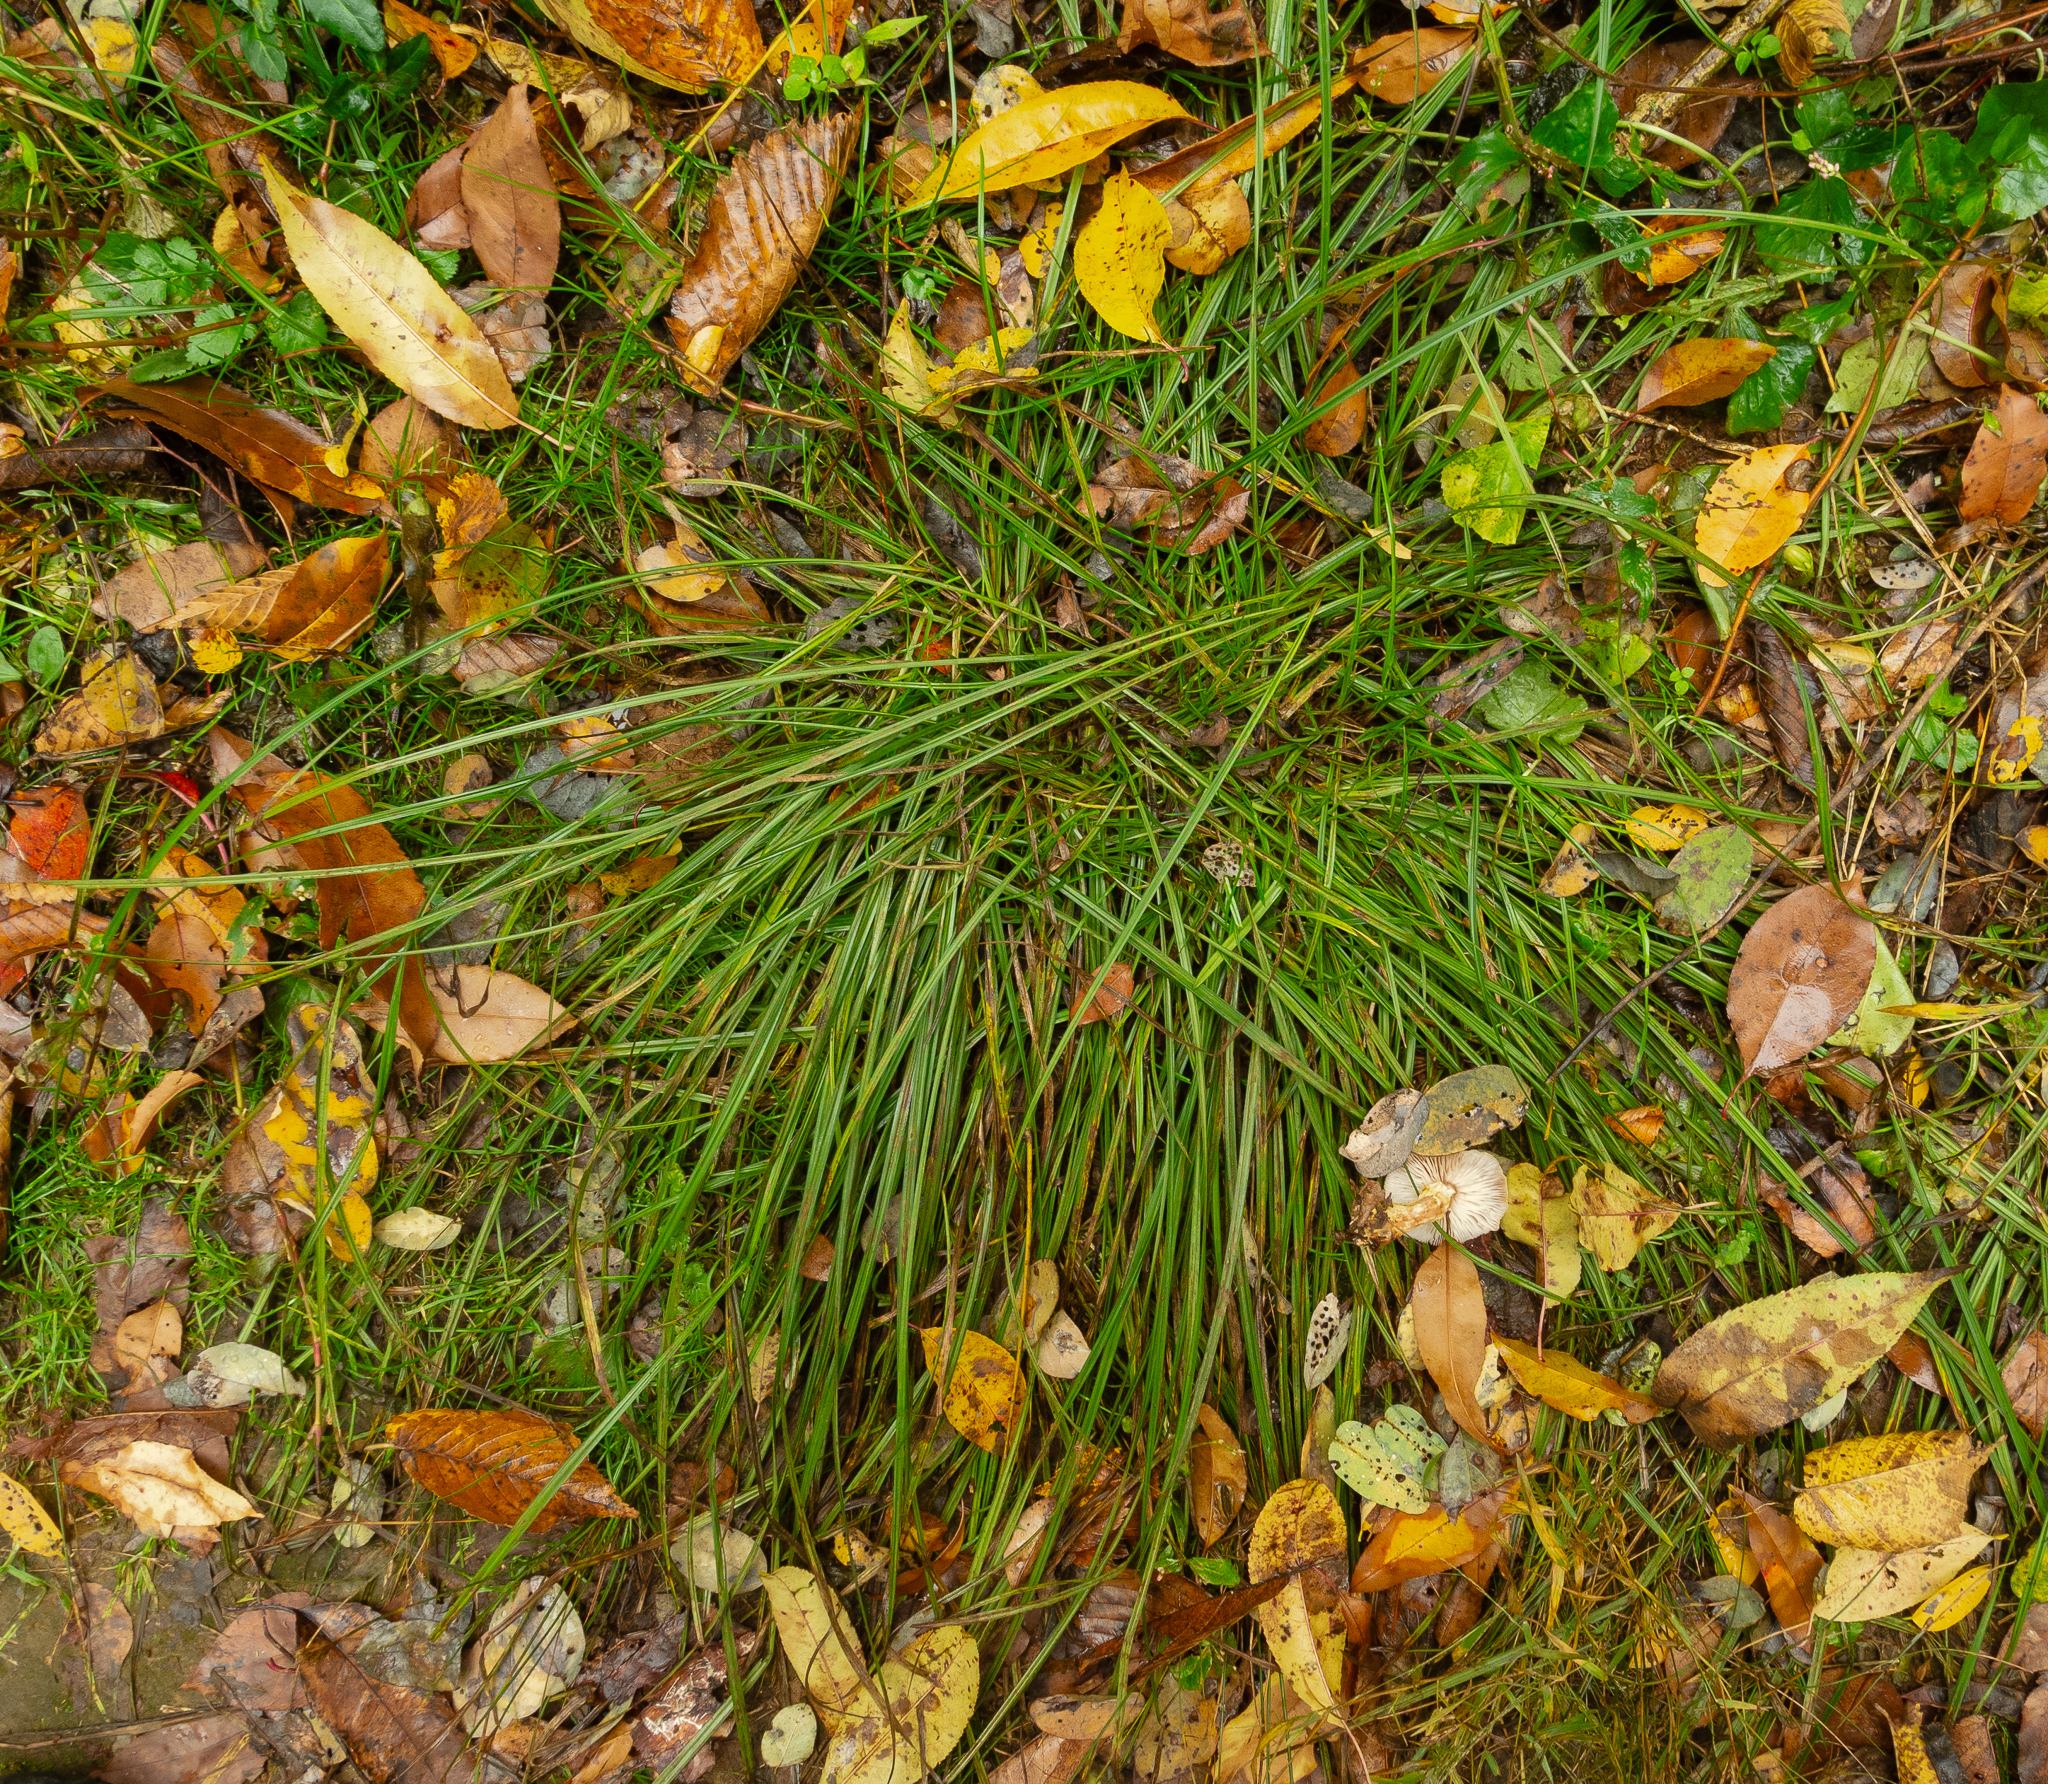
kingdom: Plantae
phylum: Tracheophyta
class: Liliopsida
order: Poales
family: Cyperaceae
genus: Carex
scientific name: Carex
